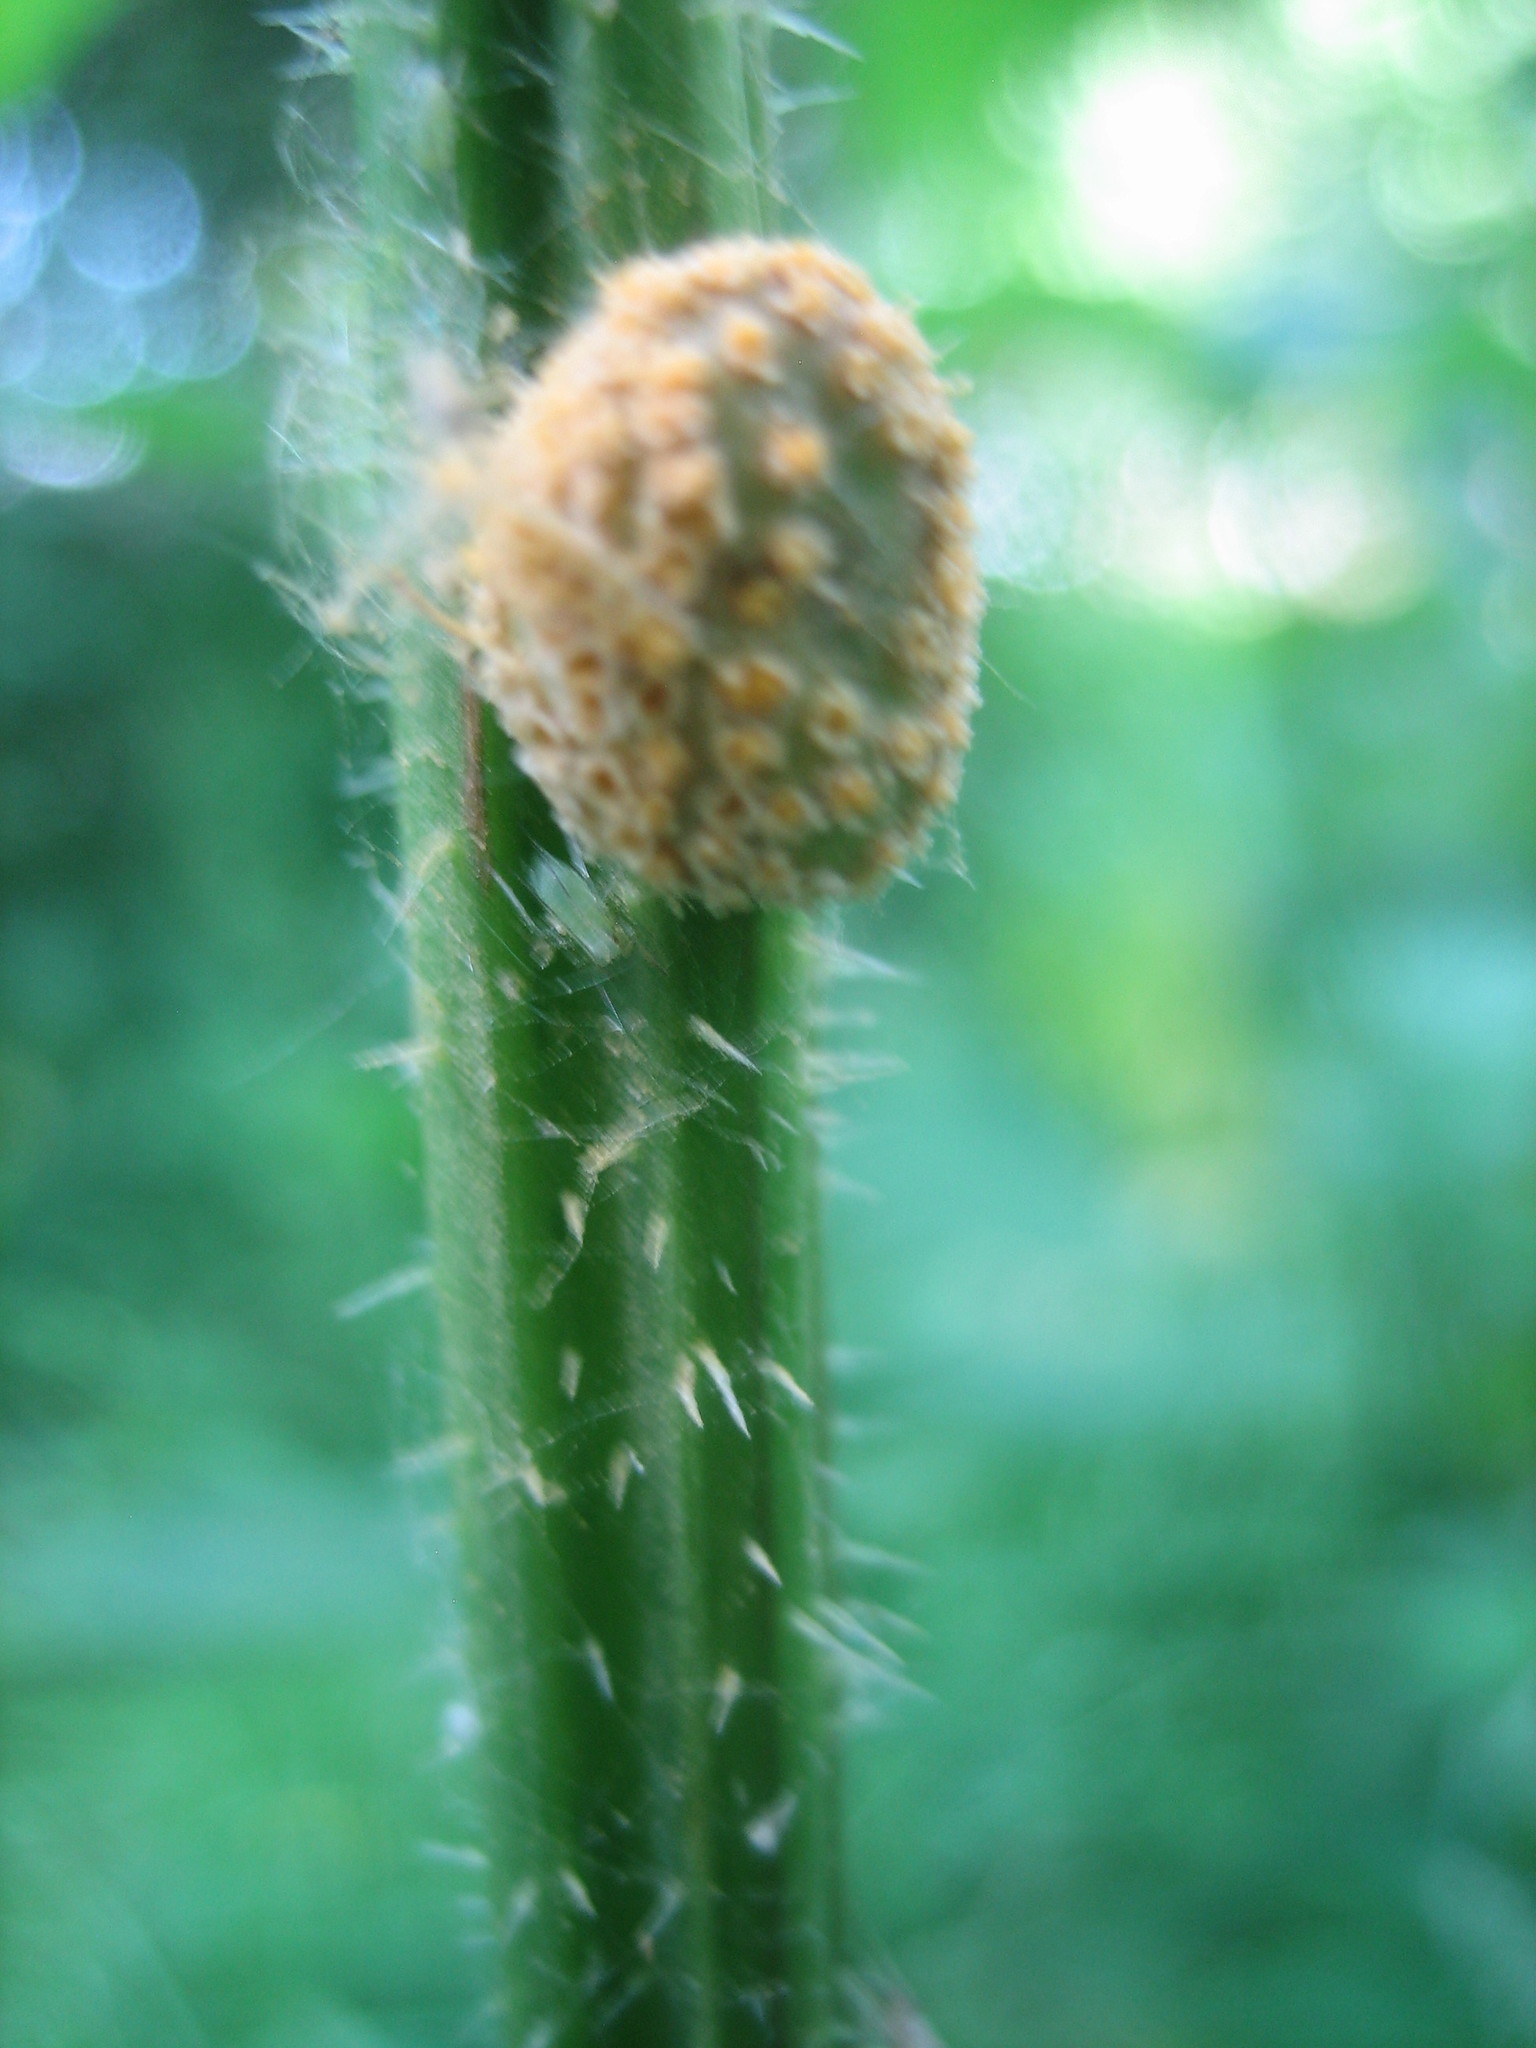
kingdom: Fungi
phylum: Basidiomycota
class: Pucciniomycetes
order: Pucciniales
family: Pucciniaceae
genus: Puccinia
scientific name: Puccinia urticata
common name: Nettle clustercup rust fungus
